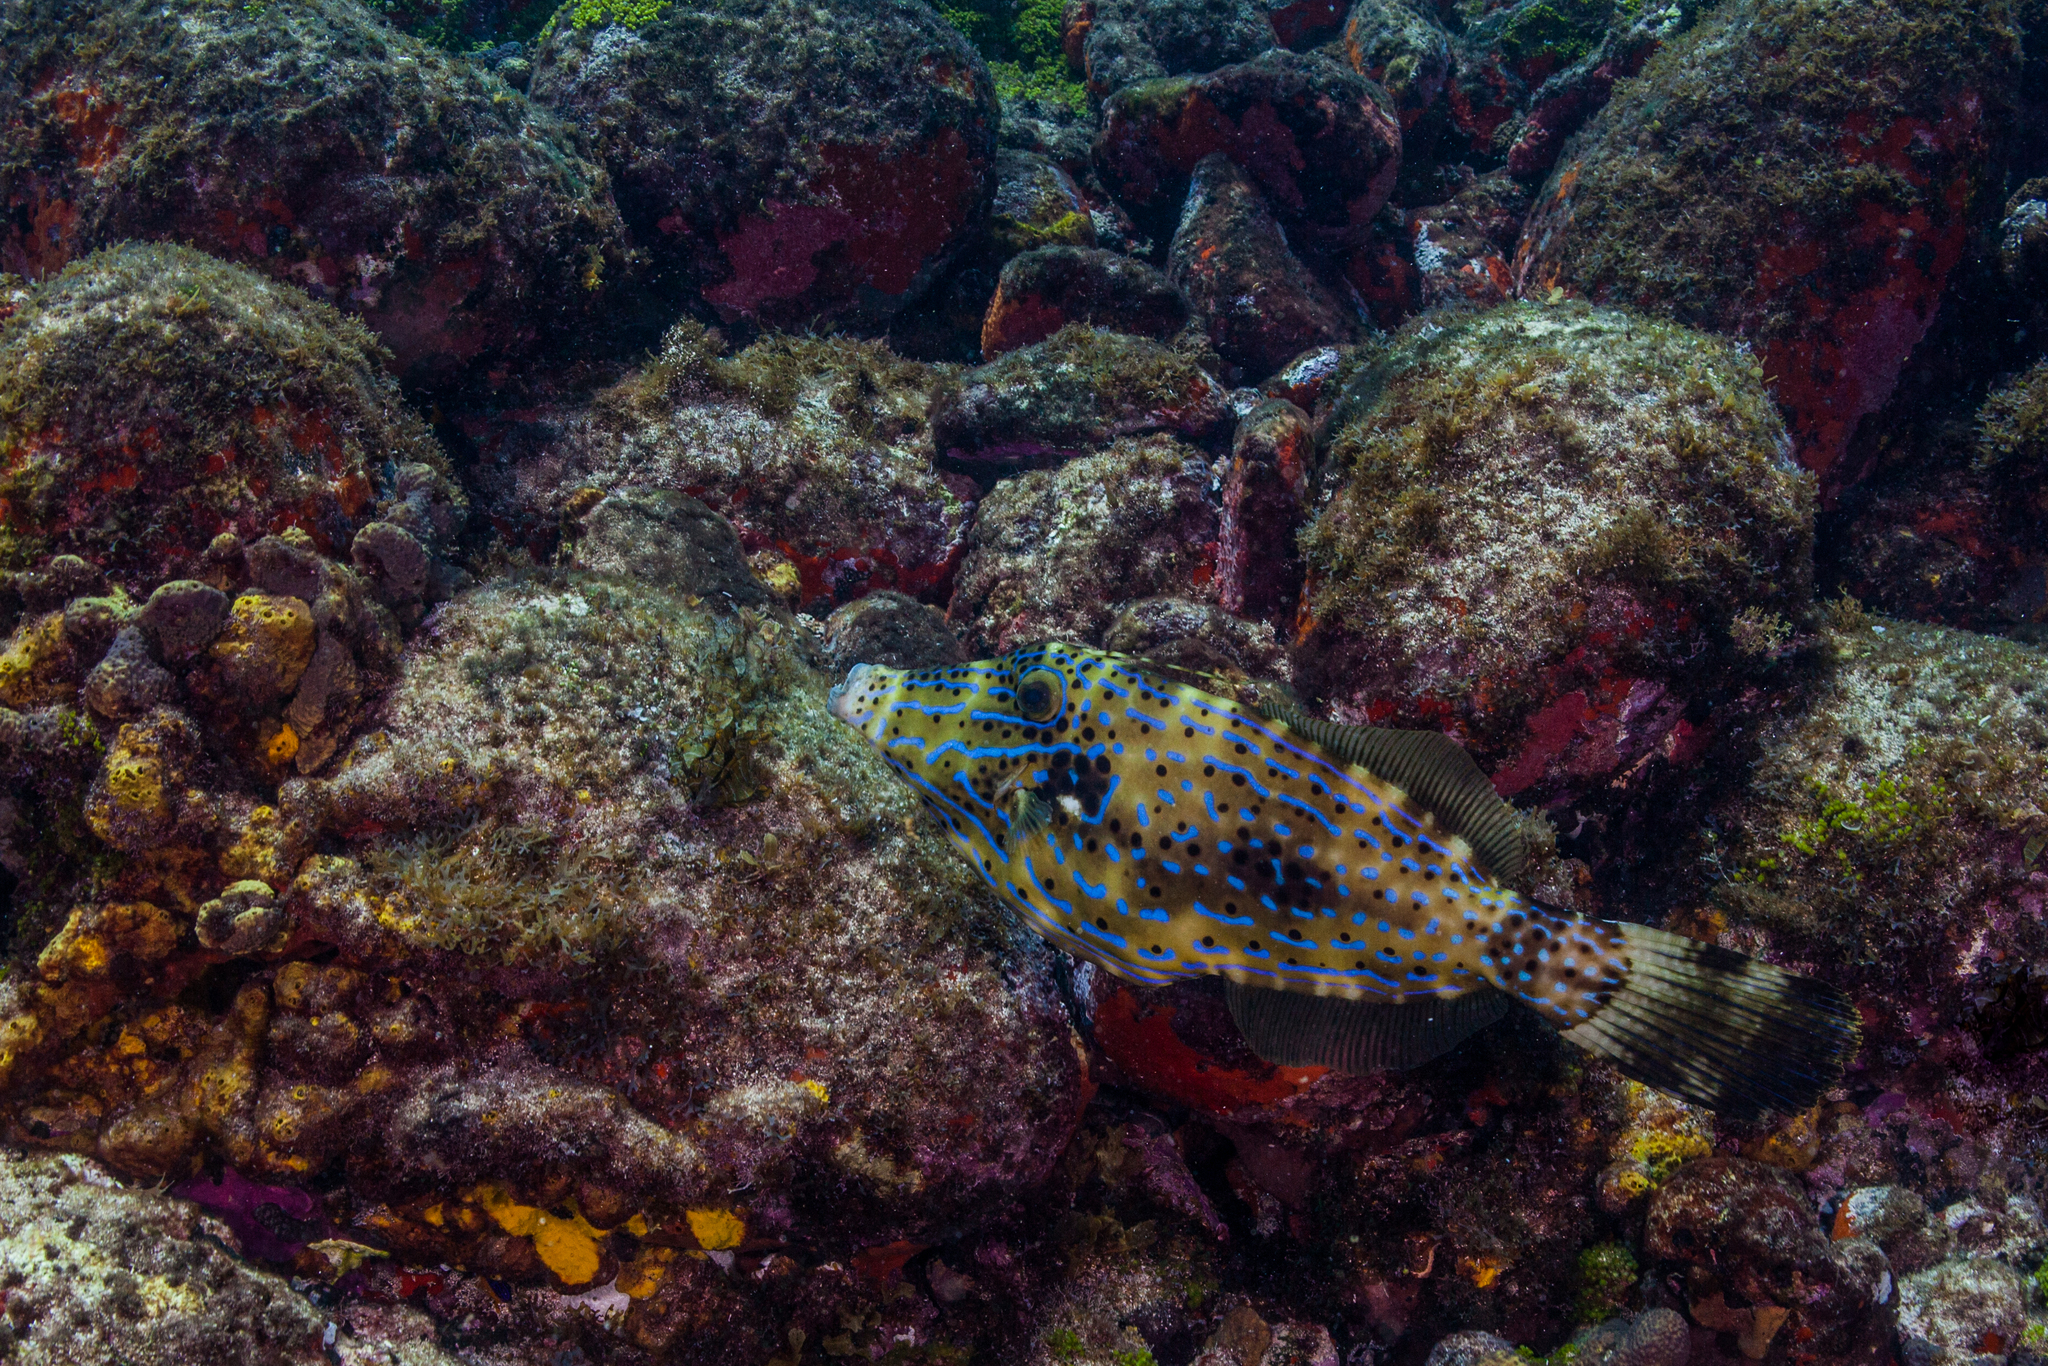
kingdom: Animalia
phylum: Chordata
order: Tetraodontiformes
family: Monacanthidae
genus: Aluterus
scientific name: Aluterus scriptus
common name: Scribbled leatherjacket filefish
